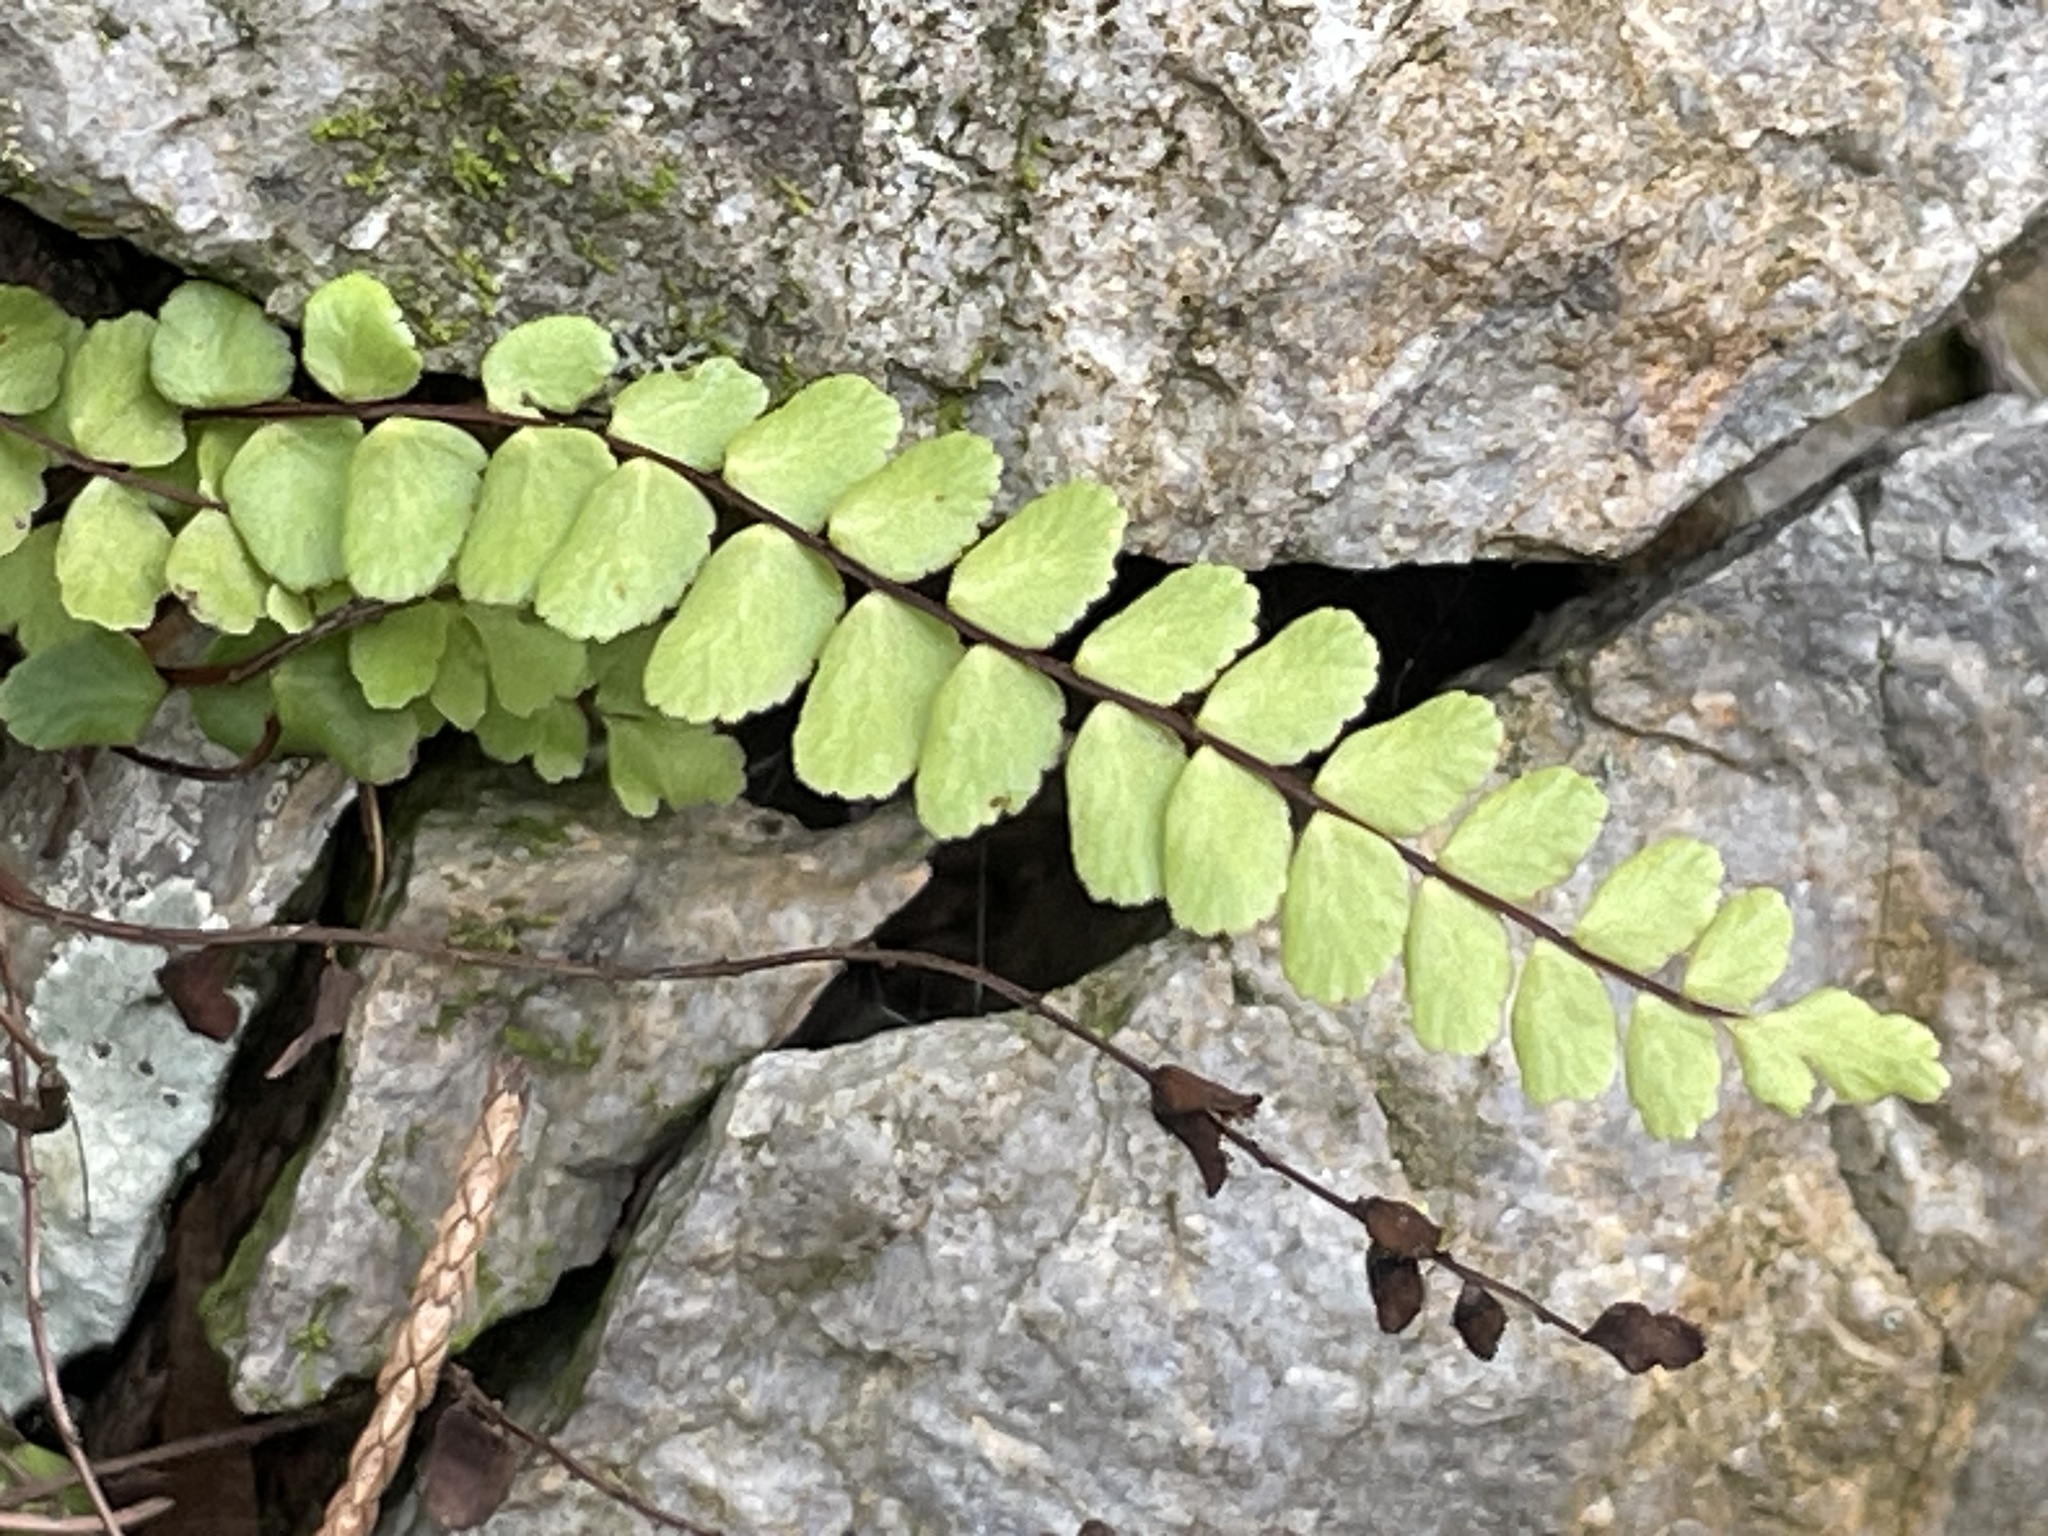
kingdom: Plantae
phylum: Tracheophyta
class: Polypodiopsida
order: Polypodiales
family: Aspleniaceae
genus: Asplenium
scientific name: Asplenium trichomanes
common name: Maidenhair spleenwort
